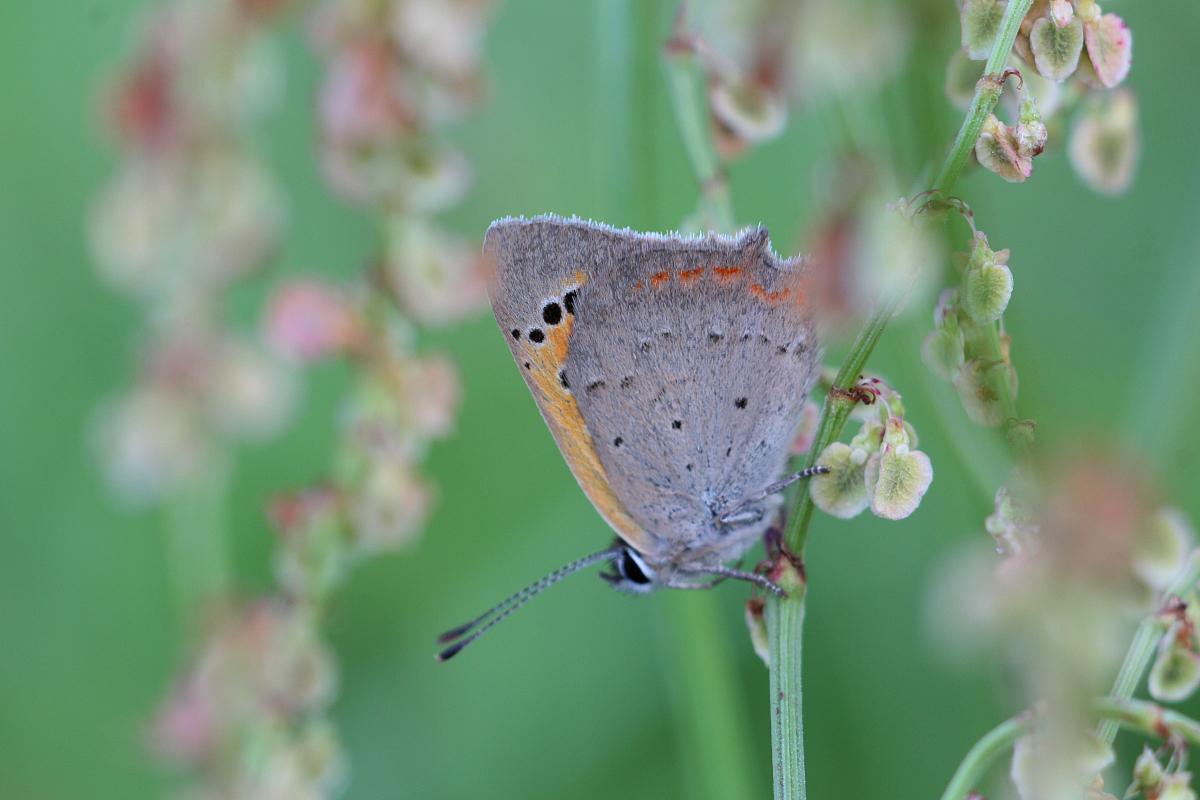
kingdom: Animalia
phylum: Arthropoda
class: Insecta
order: Lepidoptera
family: Lycaenidae
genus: Lycaena
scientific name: Lycaena phlaeas
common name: Small copper
